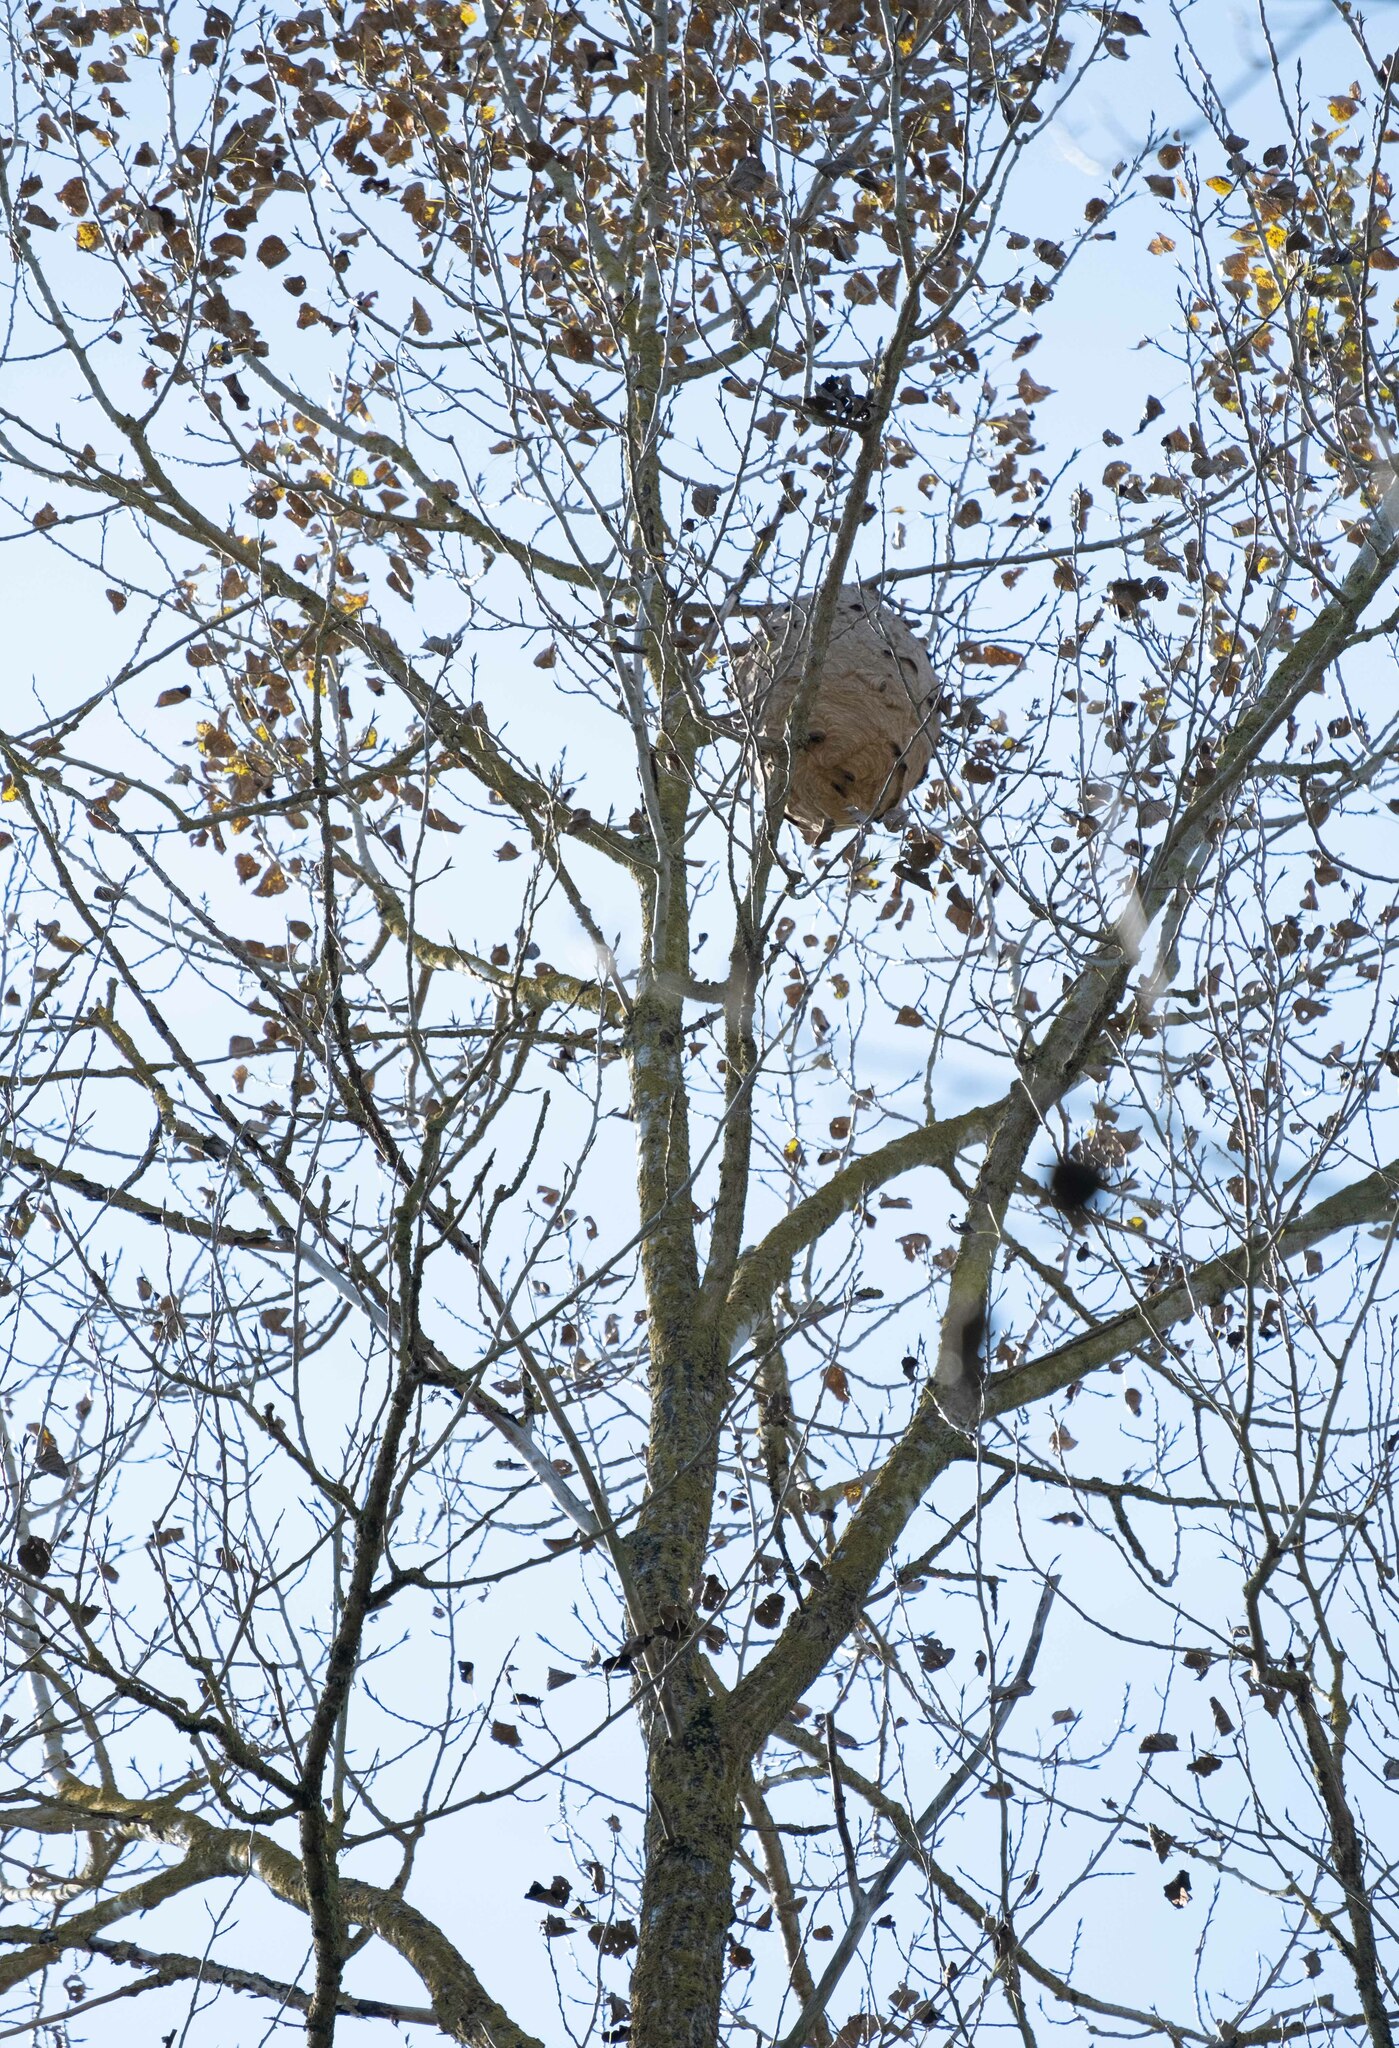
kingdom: Animalia
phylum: Arthropoda
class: Insecta
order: Hymenoptera
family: Vespidae
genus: Vespa
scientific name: Vespa velutina
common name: Asian hornet
